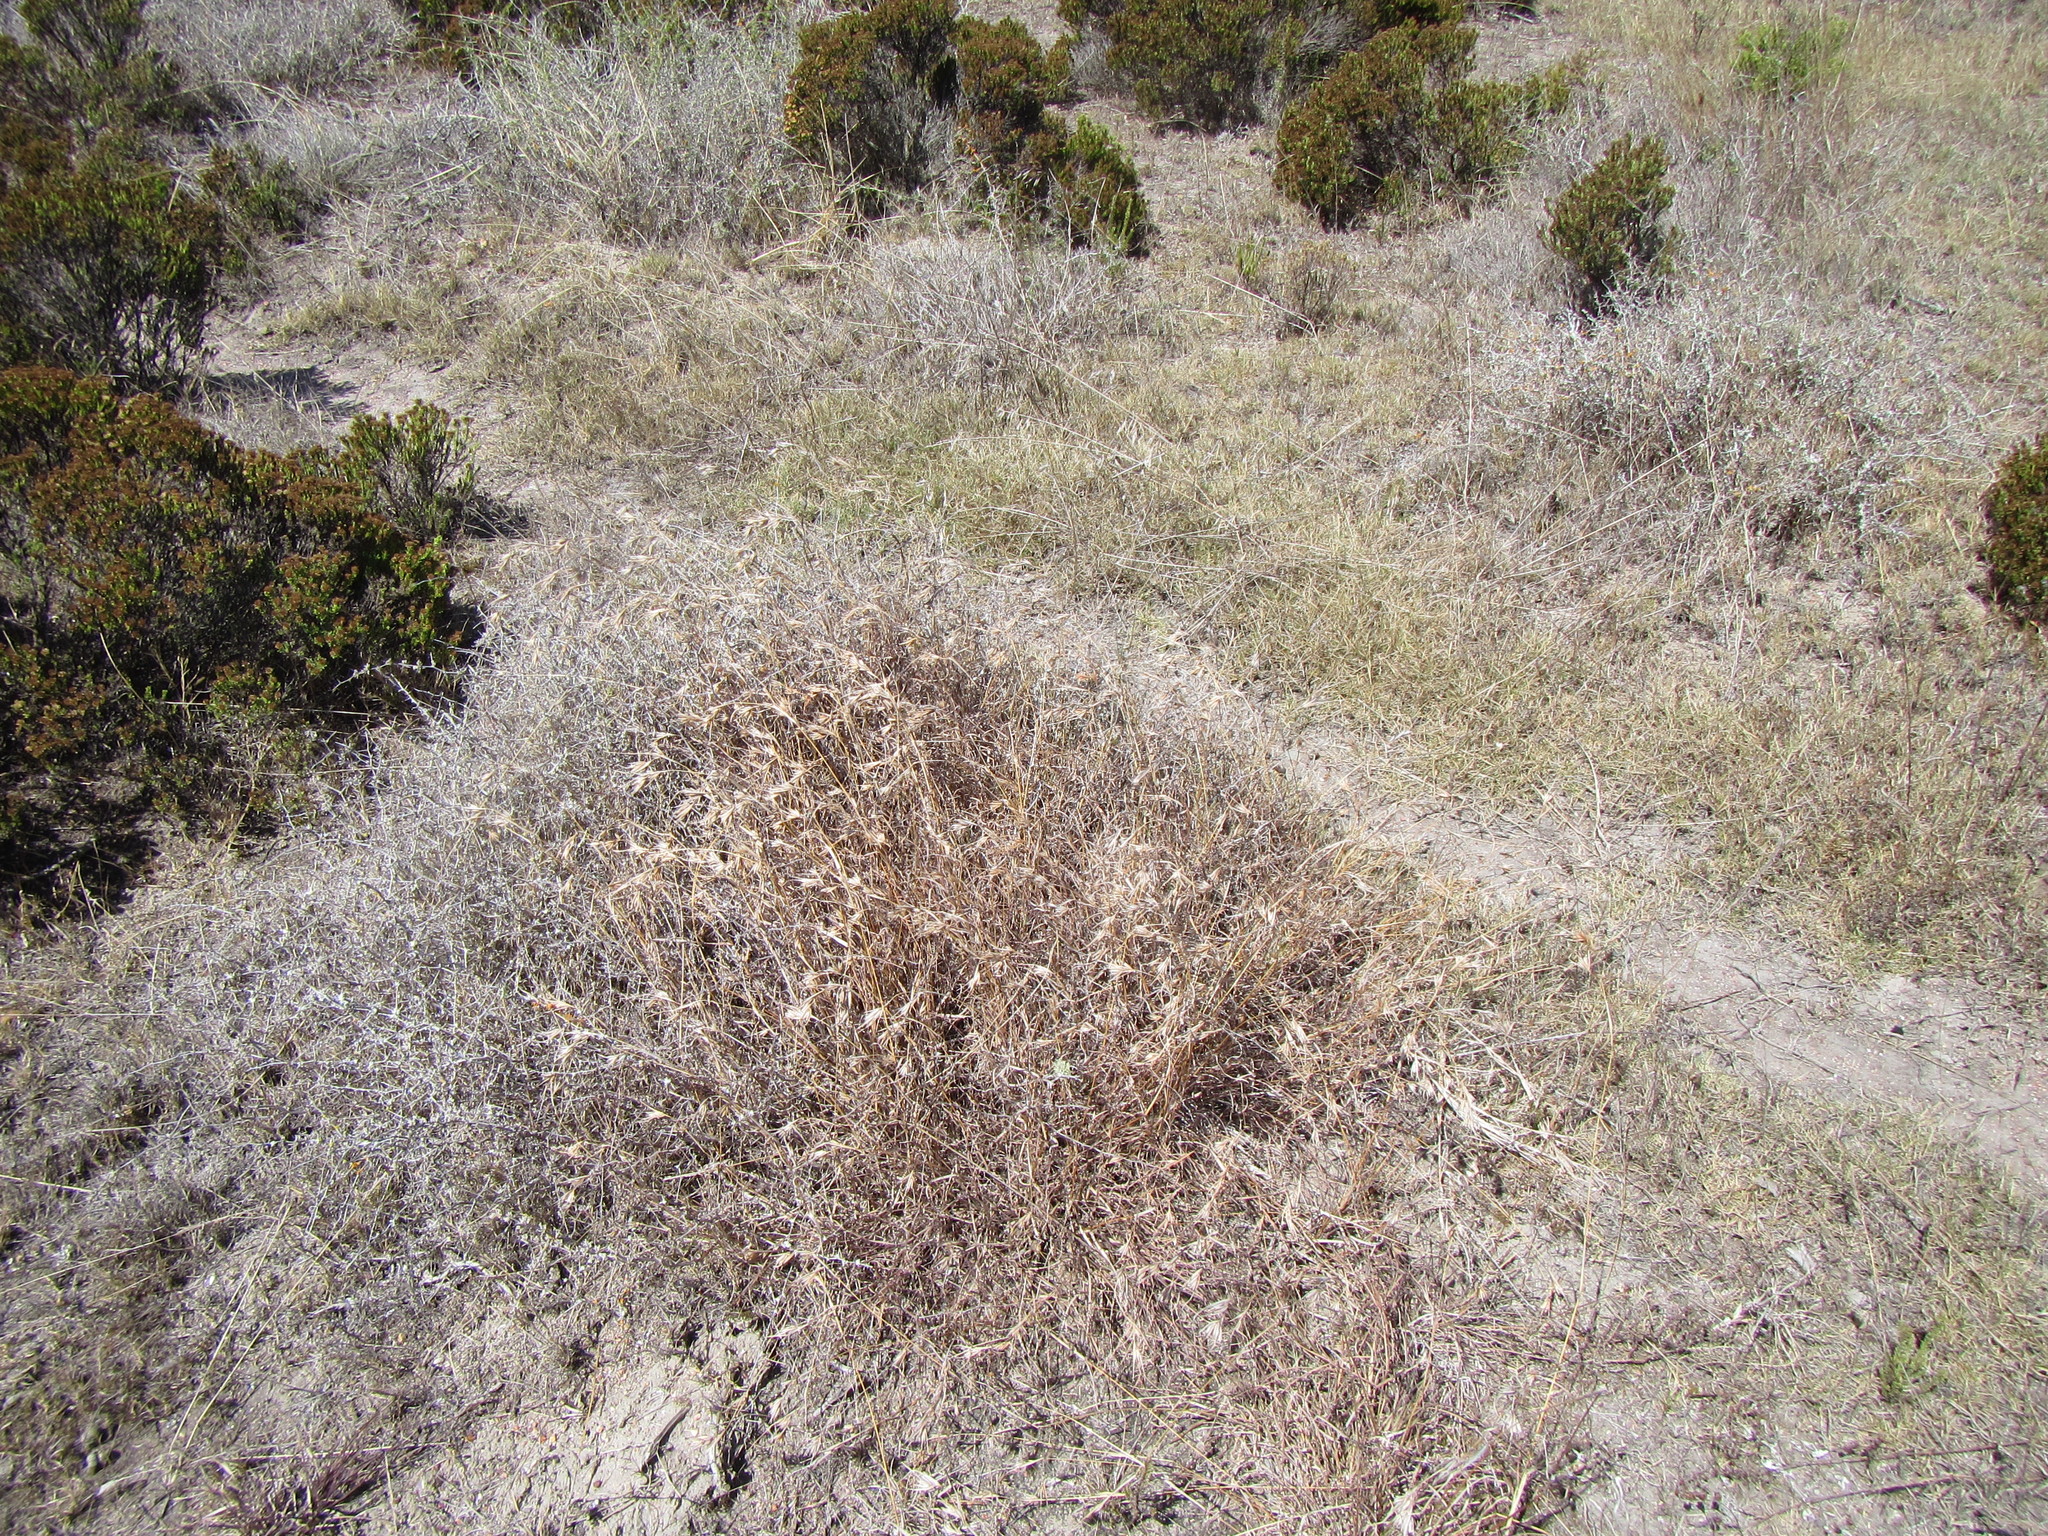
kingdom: Plantae
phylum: Tracheophyta
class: Liliopsida
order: Poales
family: Poaceae
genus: Themeda
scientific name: Themeda triandra
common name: Kangaroo grass
